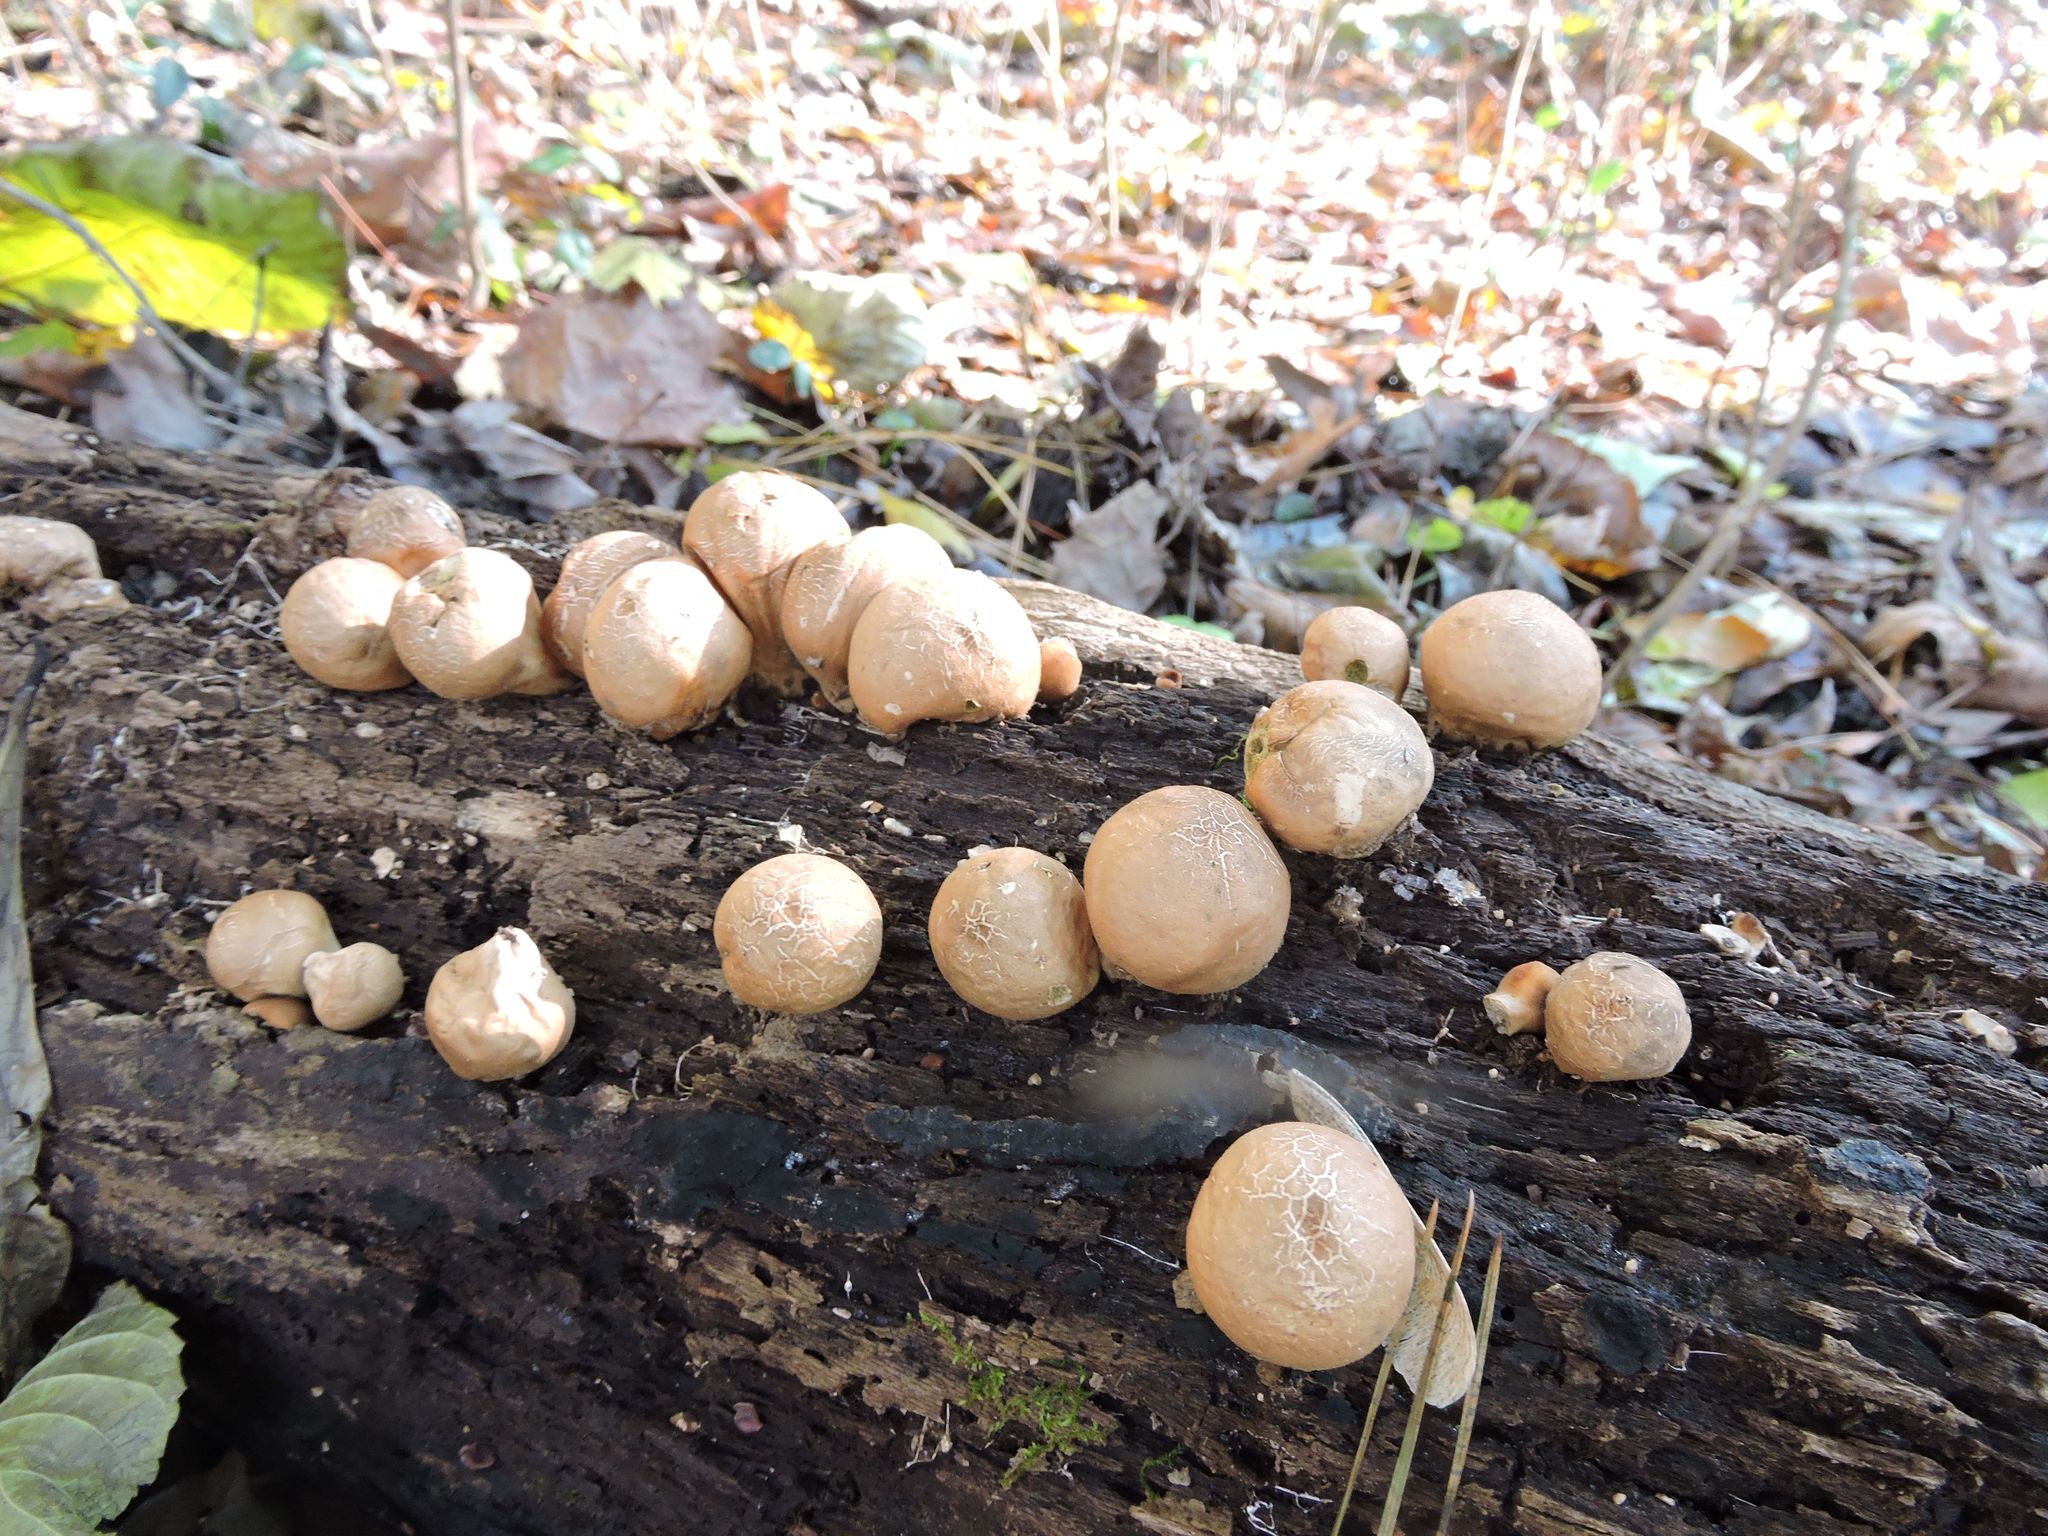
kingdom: Fungi
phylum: Basidiomycota
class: Agaricomycetes
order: Agaricales
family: Lycoperdaceae
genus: Apioperdon
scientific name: Apioperdon pyriforme
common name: Pear-shaped puffball
